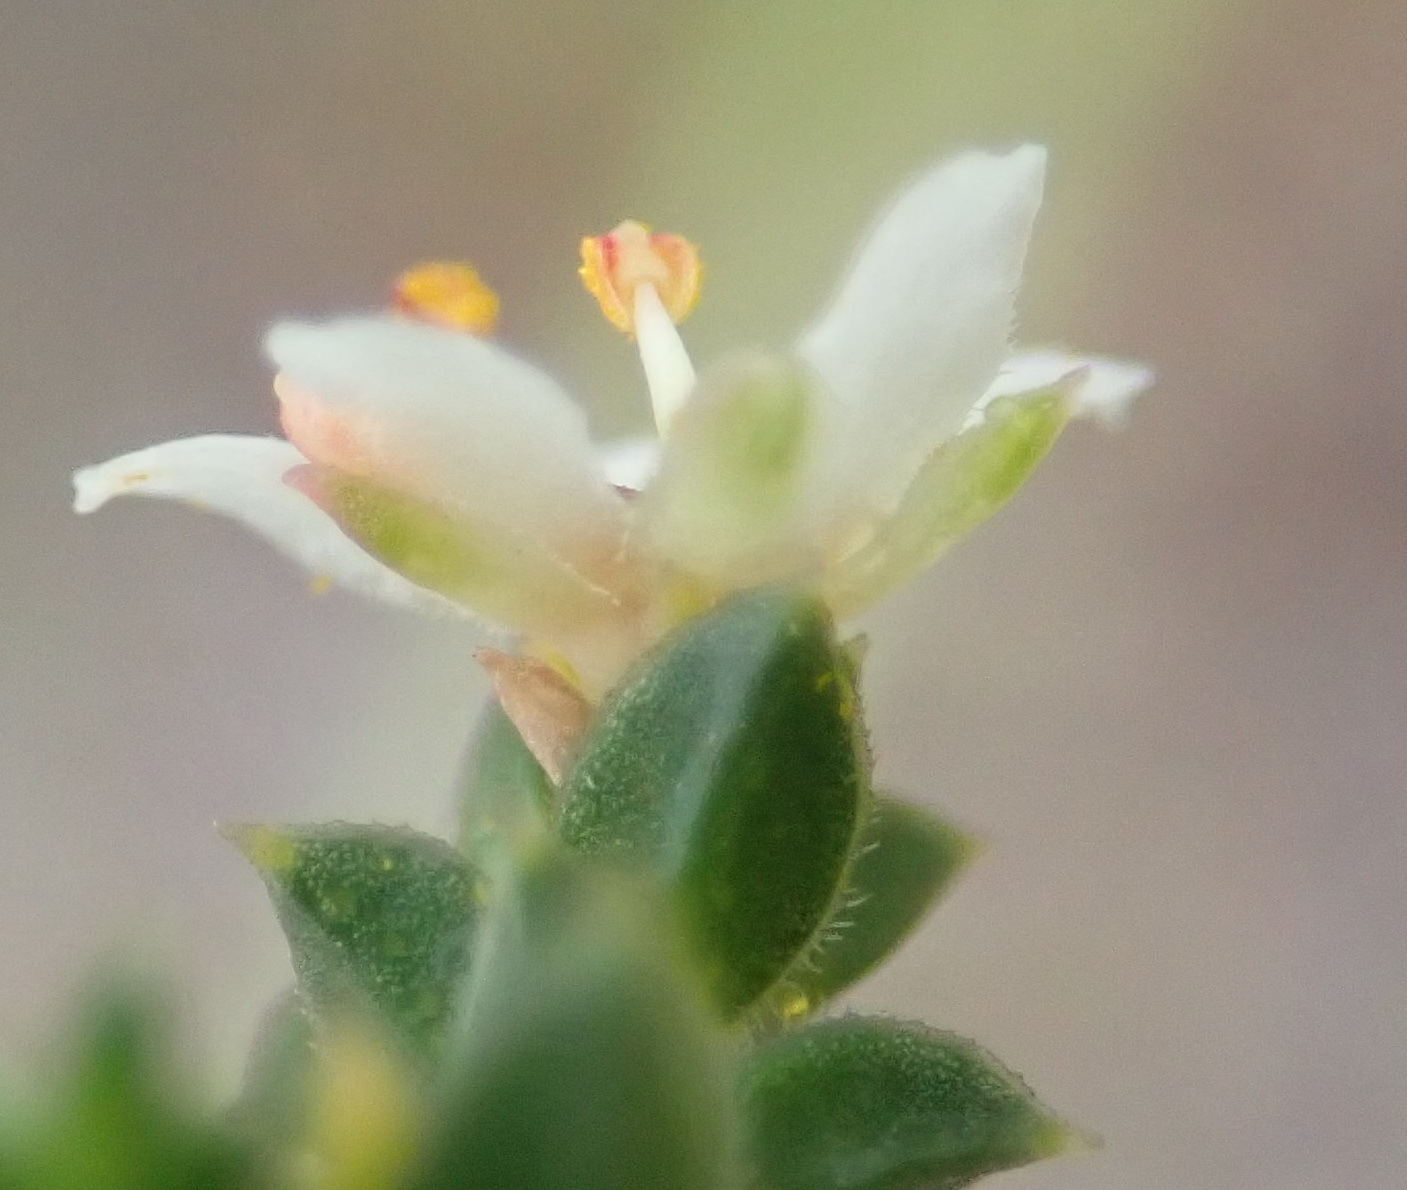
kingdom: Plantae
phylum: Tracheophyta
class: Magnoliopsida
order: Sapindales
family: Rutaceae
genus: Diosma
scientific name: Diosma echinulata
